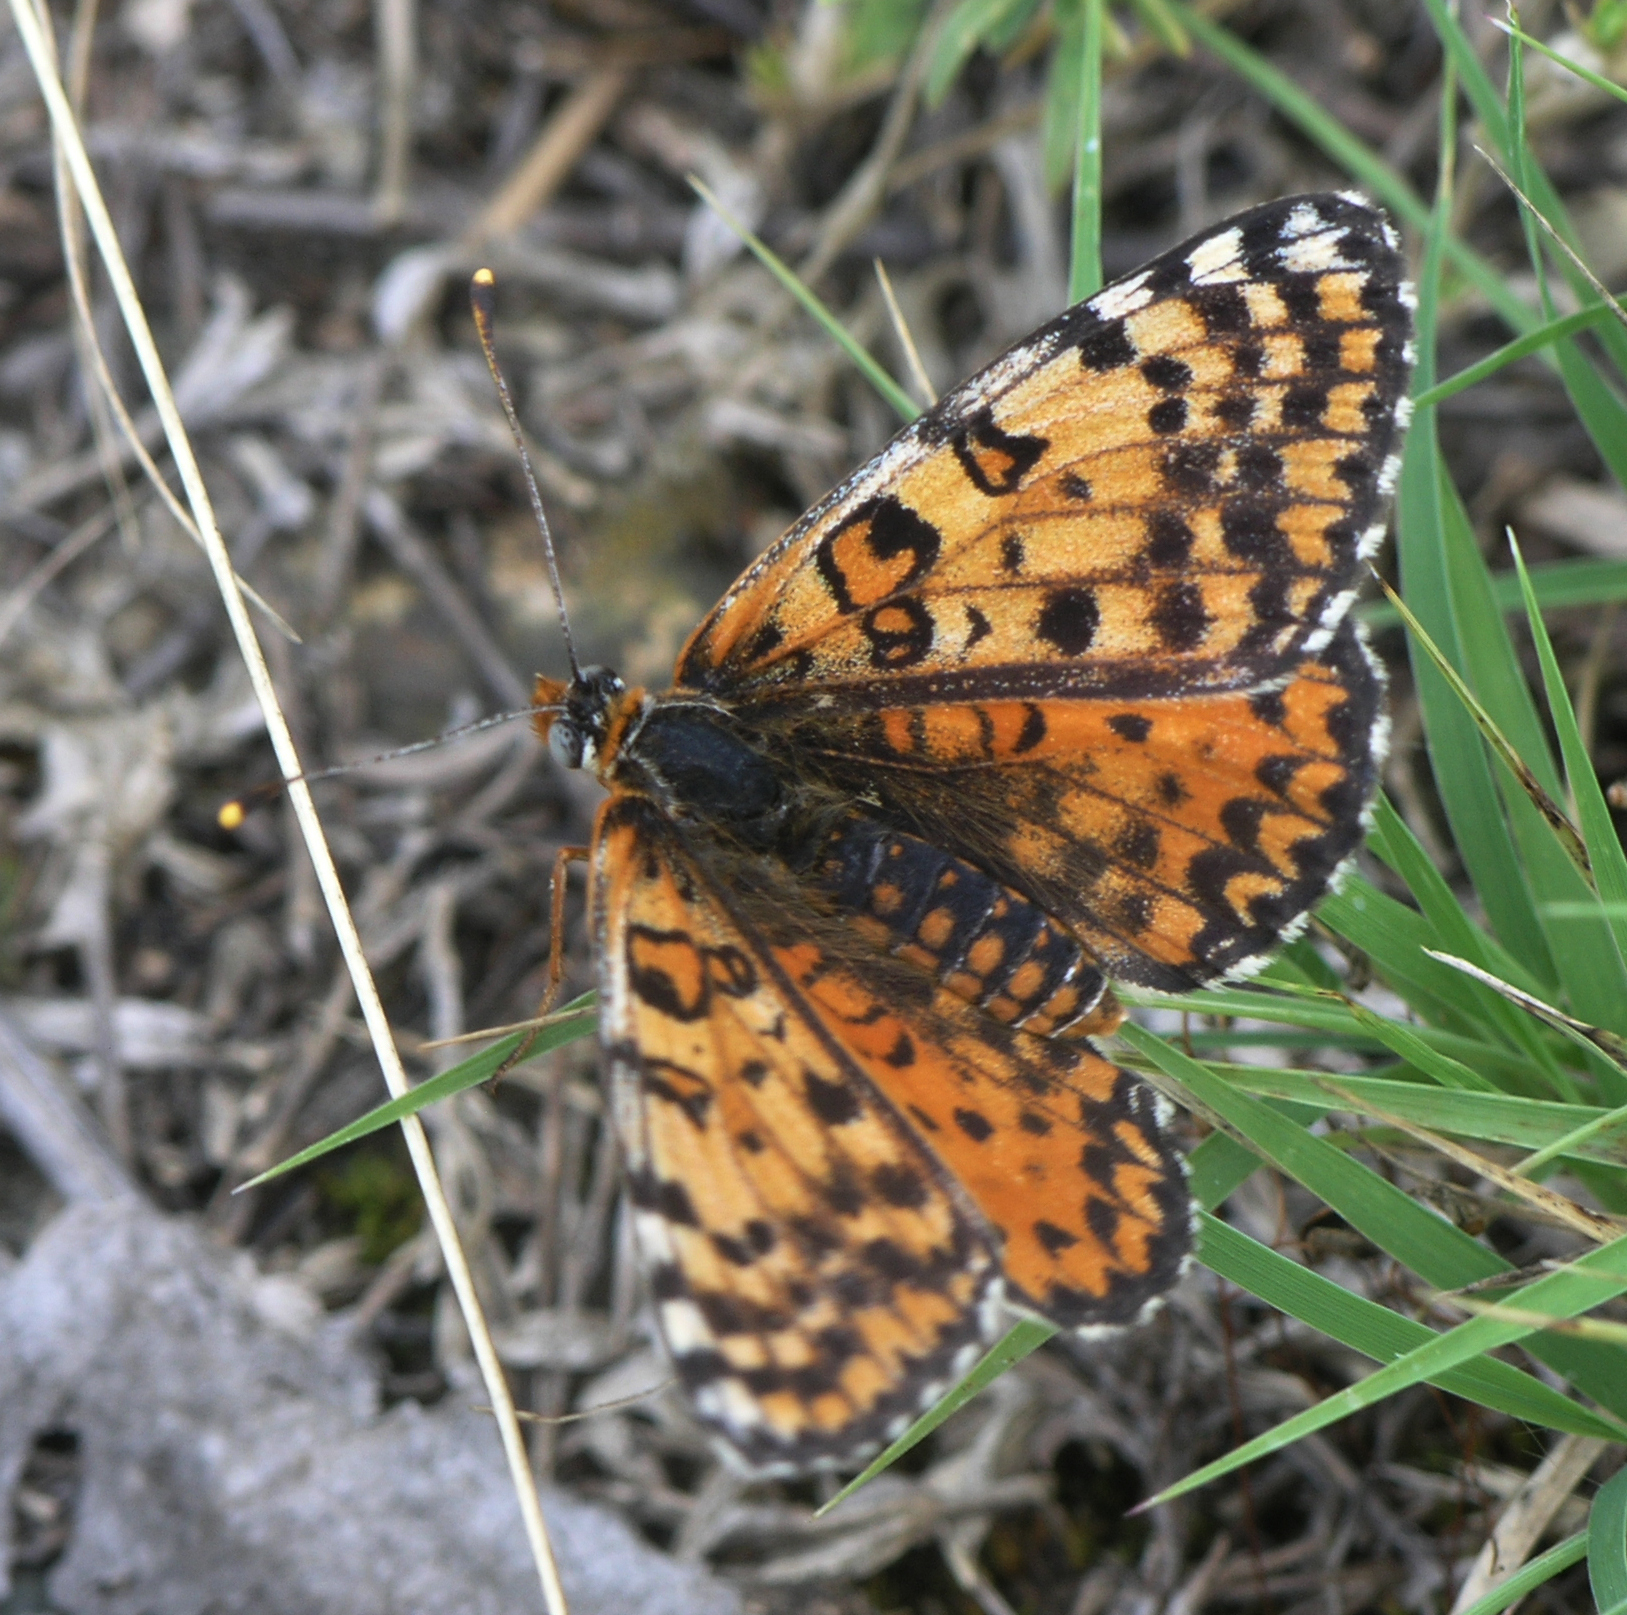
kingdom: Animalia
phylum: Arthropoda
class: Insecta
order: Lepidoptera
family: Nymphalidae
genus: Melitaea
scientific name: Melitaea didyma
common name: Spotted fritillary
